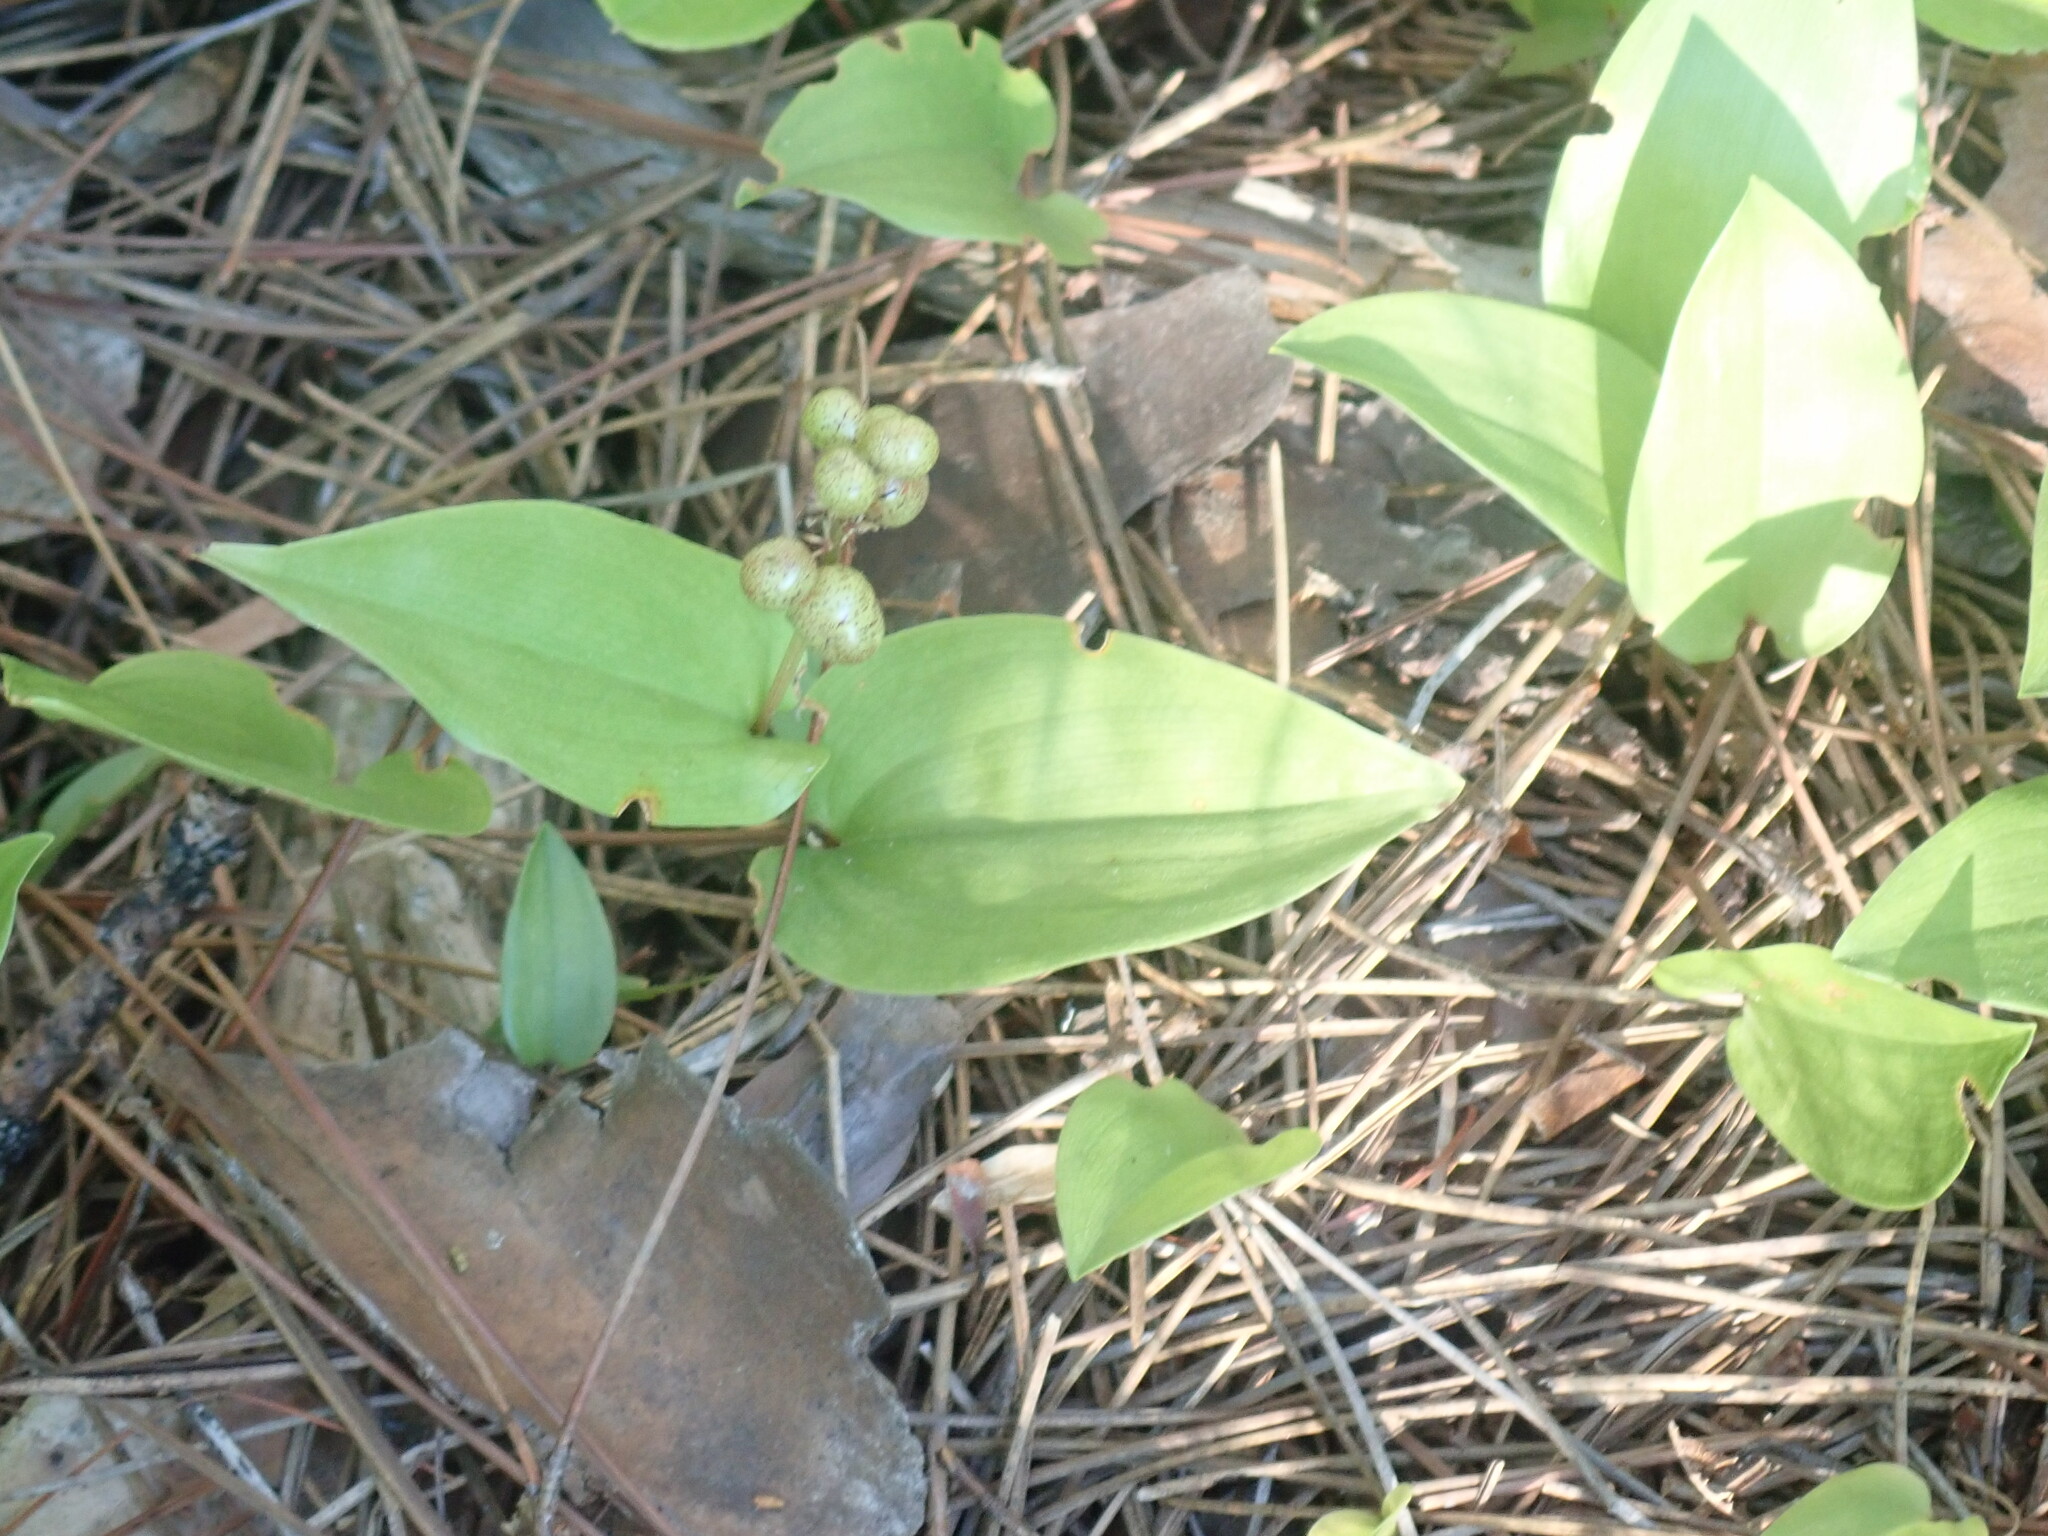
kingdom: Plantae
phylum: Tracheophyta
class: Liliopsida
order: Asparagales
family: Asparagaceae
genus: Maianthemum
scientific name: Maianthemum canadense
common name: False lily-of-the-valley
